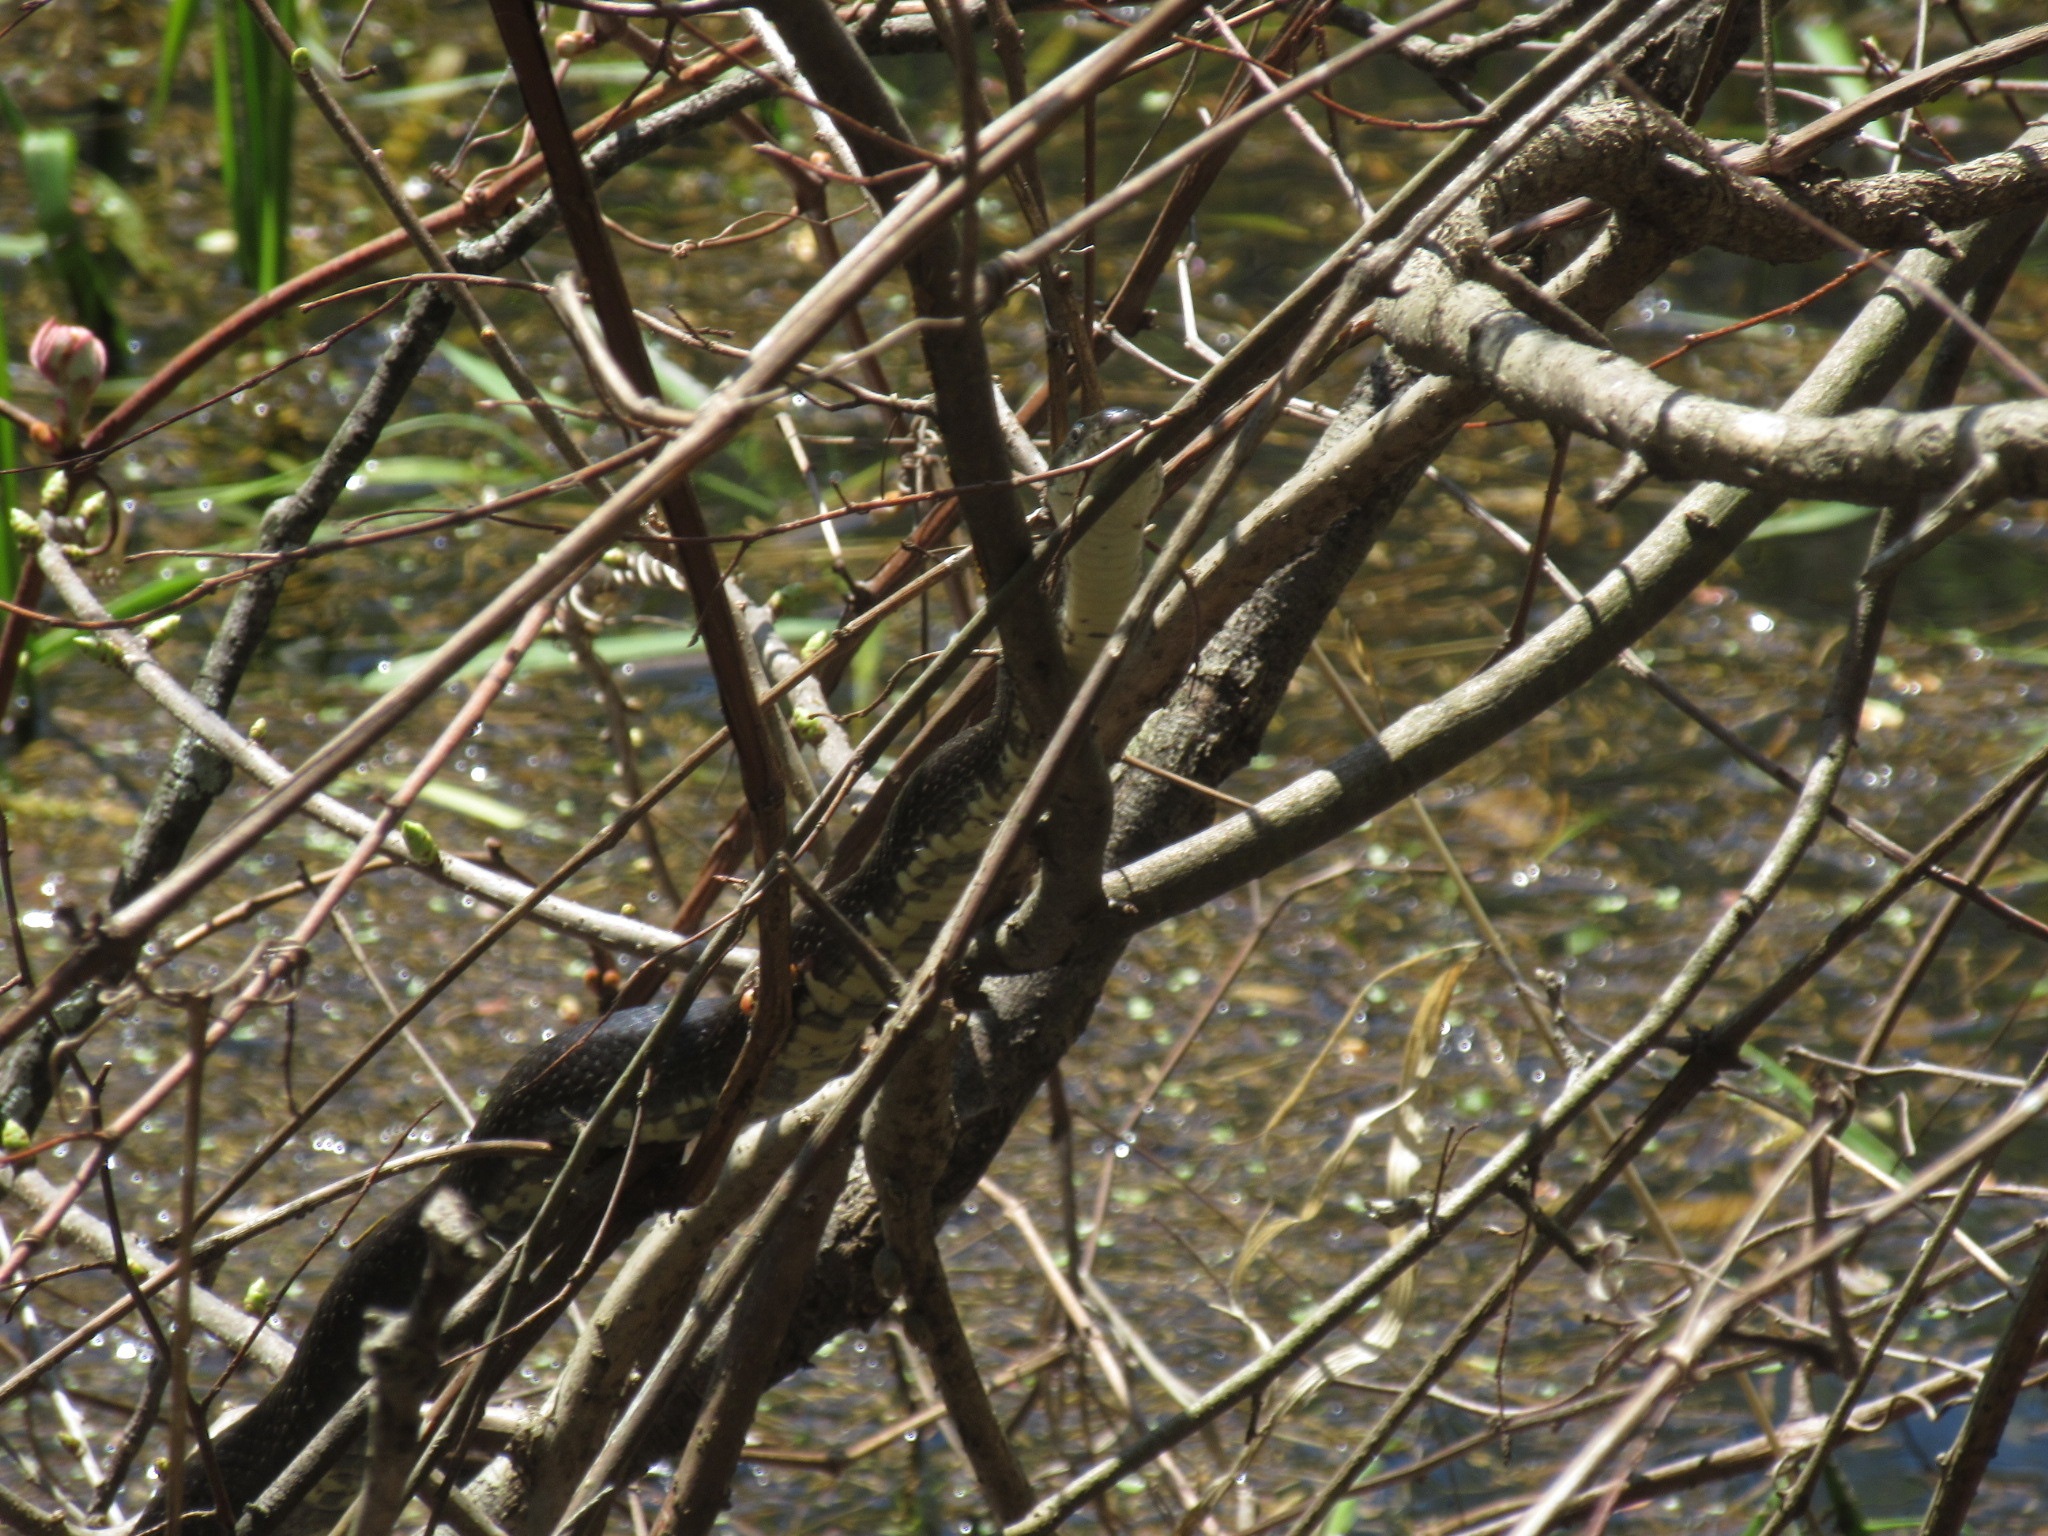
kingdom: Animalia
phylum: Chordata
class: Squamata
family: Colubridae
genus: Pantherophis
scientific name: Pantherophis alleghaniensis
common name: Eastern rat snake
